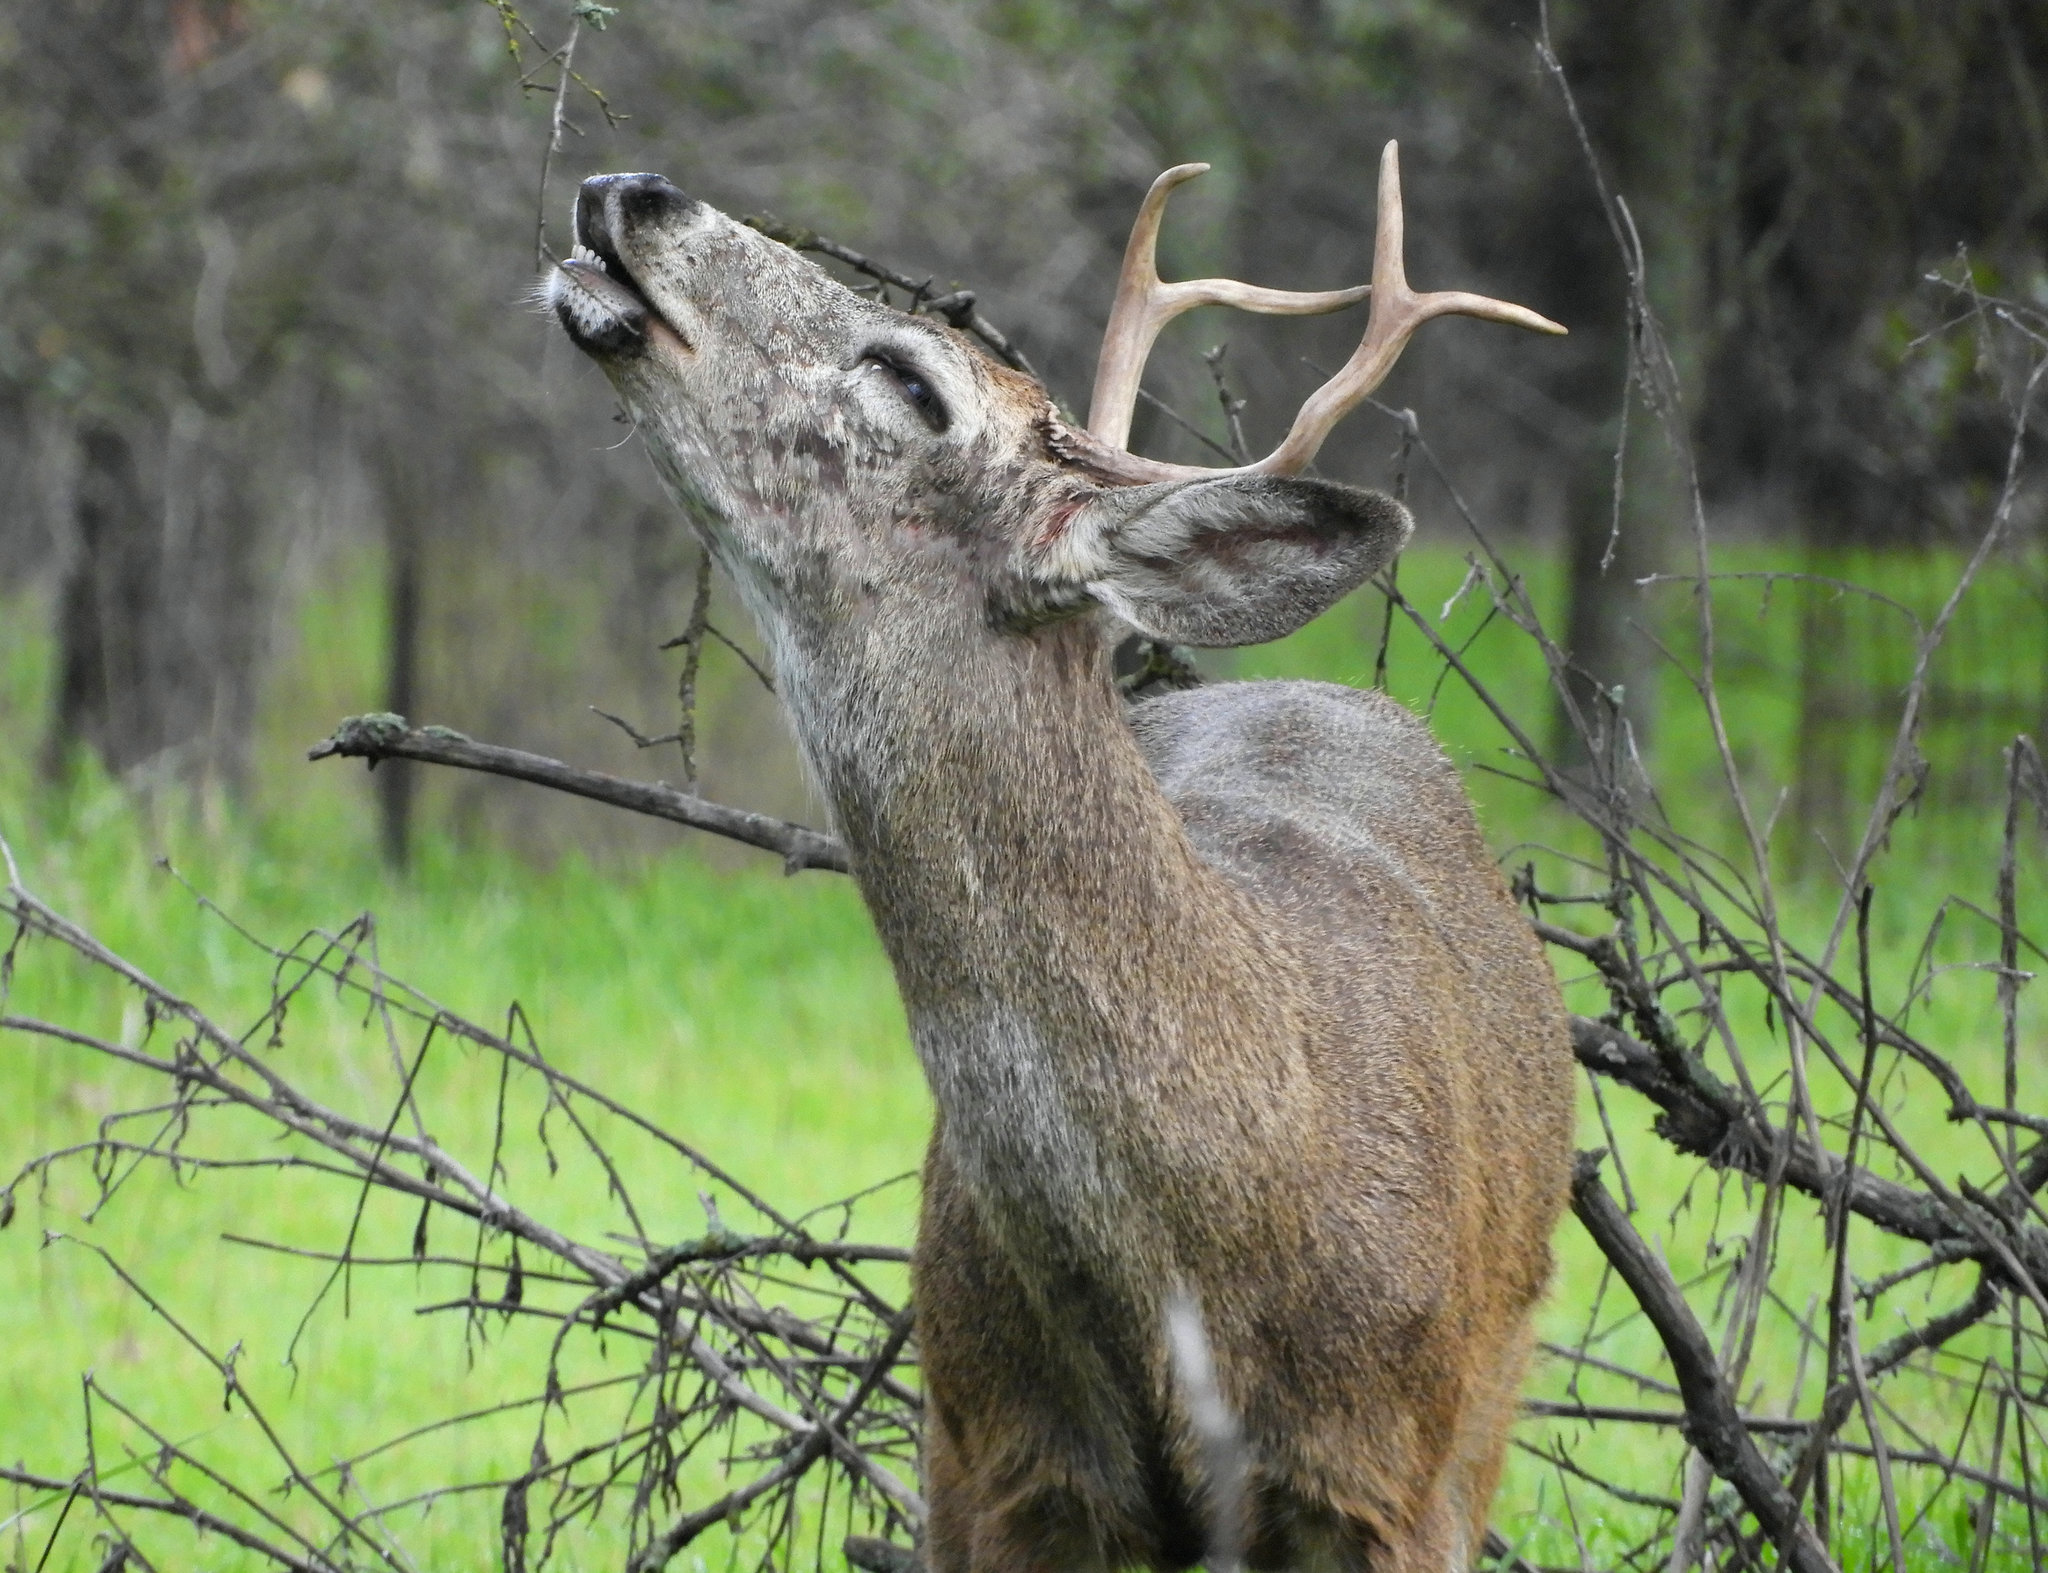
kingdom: Animalia
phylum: Chordata
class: Mammalia
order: Artiodactyla
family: Cervidae
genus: Odocoileus
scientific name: Odocoileus hemionus
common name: Mule deer
